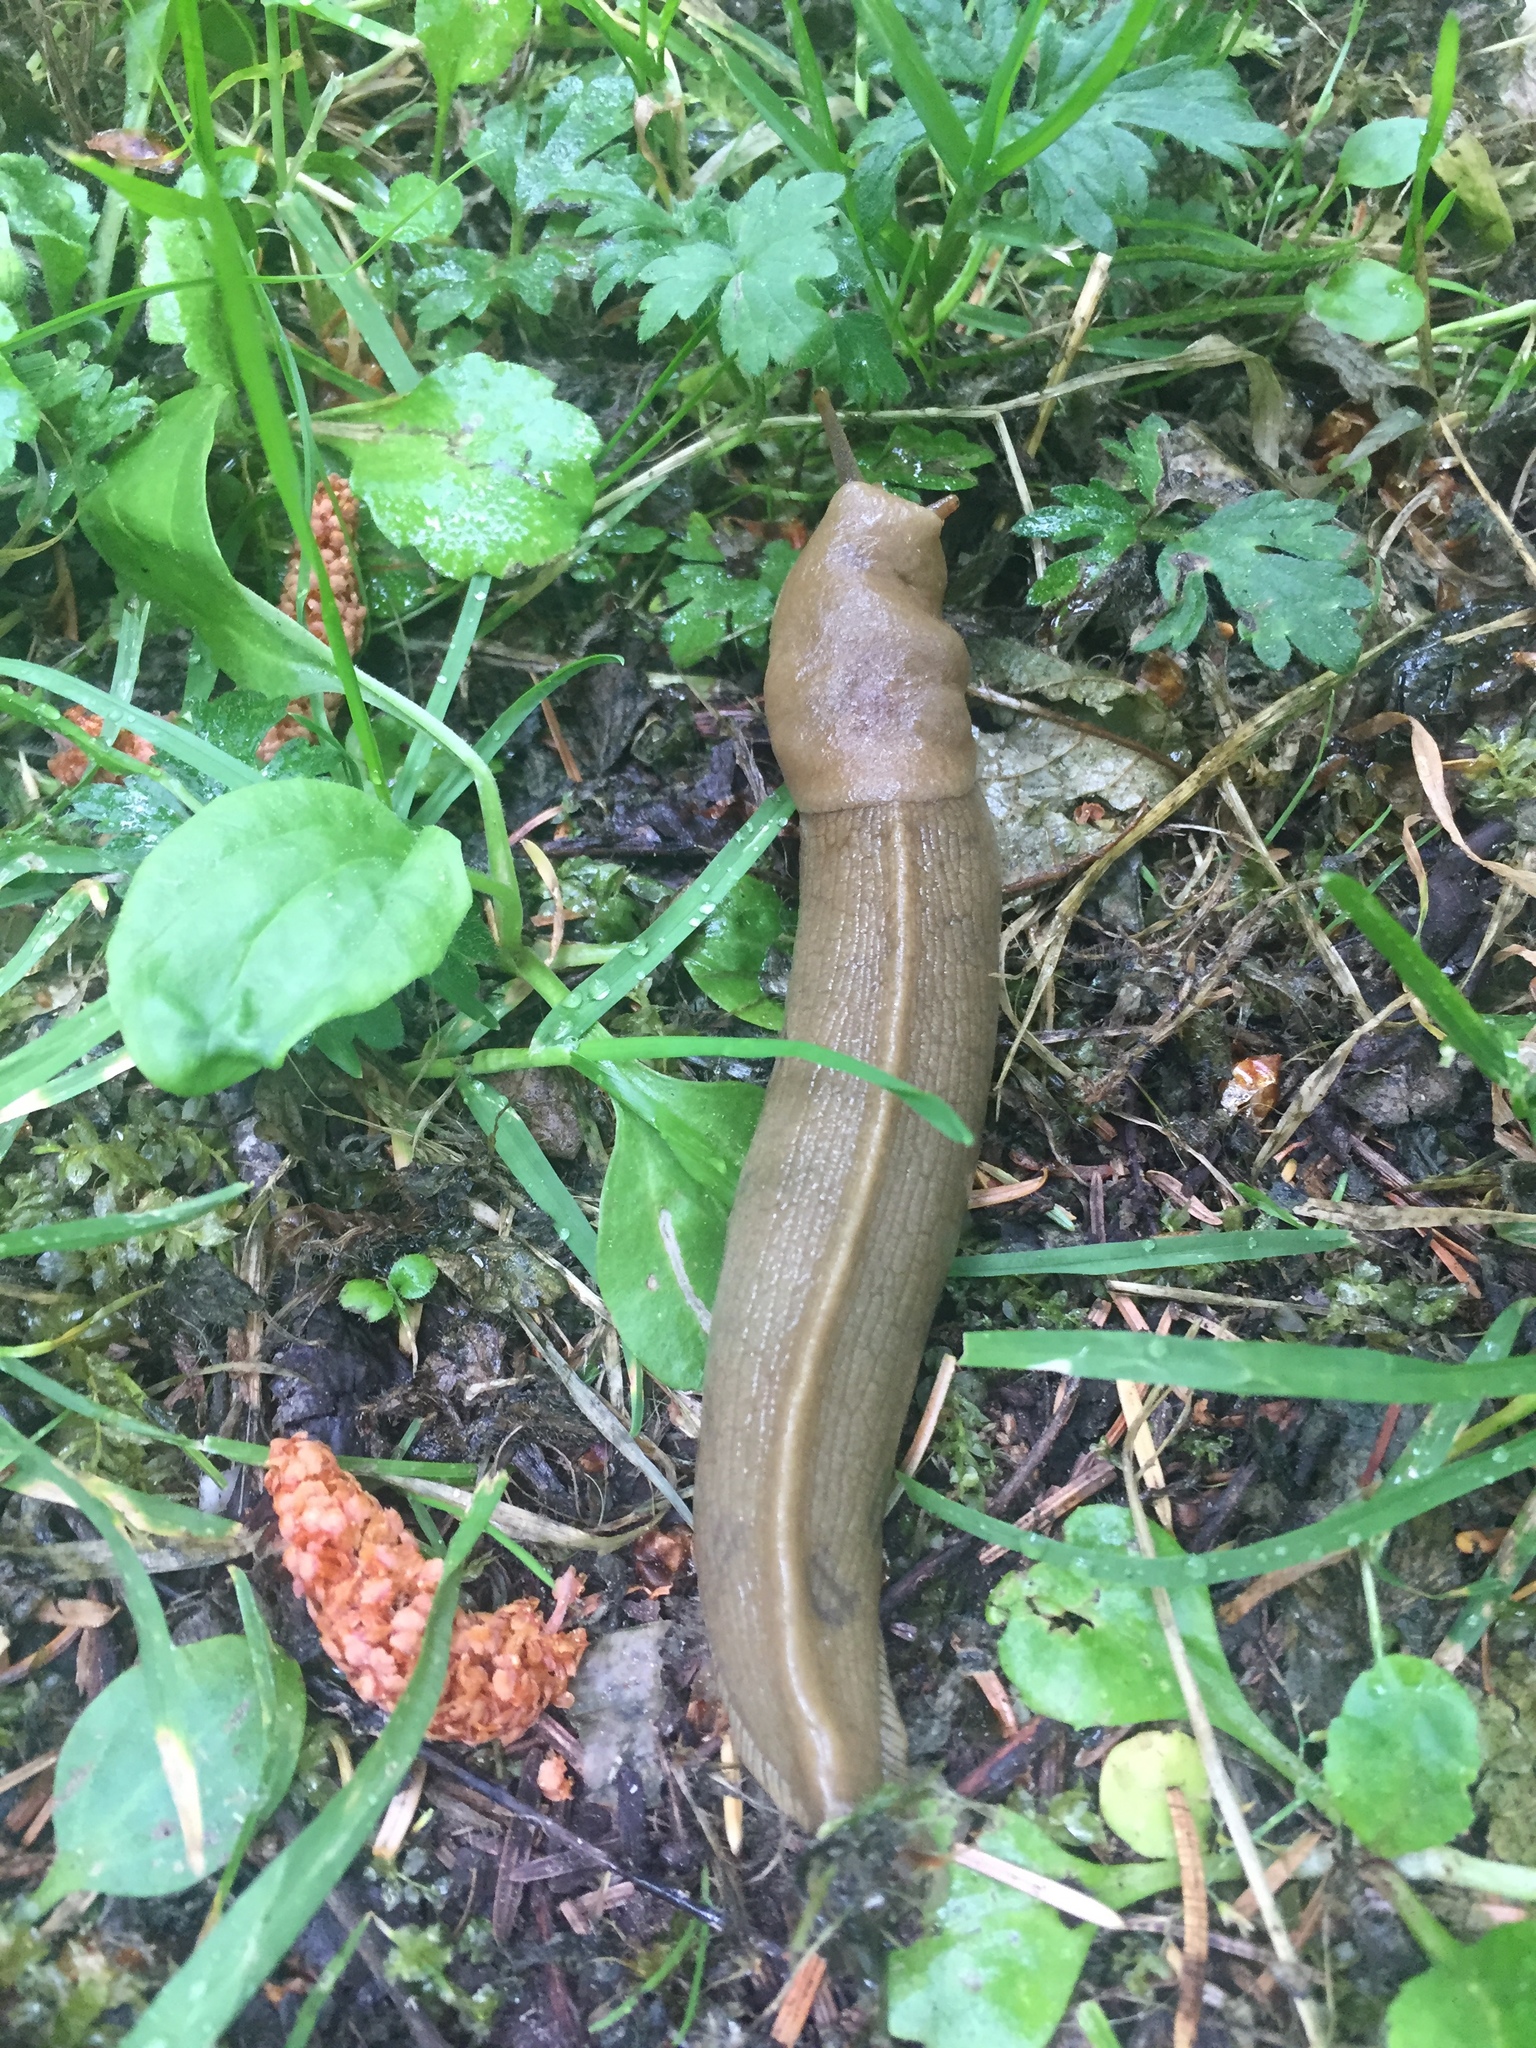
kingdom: Animalia
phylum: Mollusca
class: Gastropoda
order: Stylommatophora
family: Ariolimacidae
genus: Ariolimax
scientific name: Ariolimax columbianus
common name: Pacific banana slug
